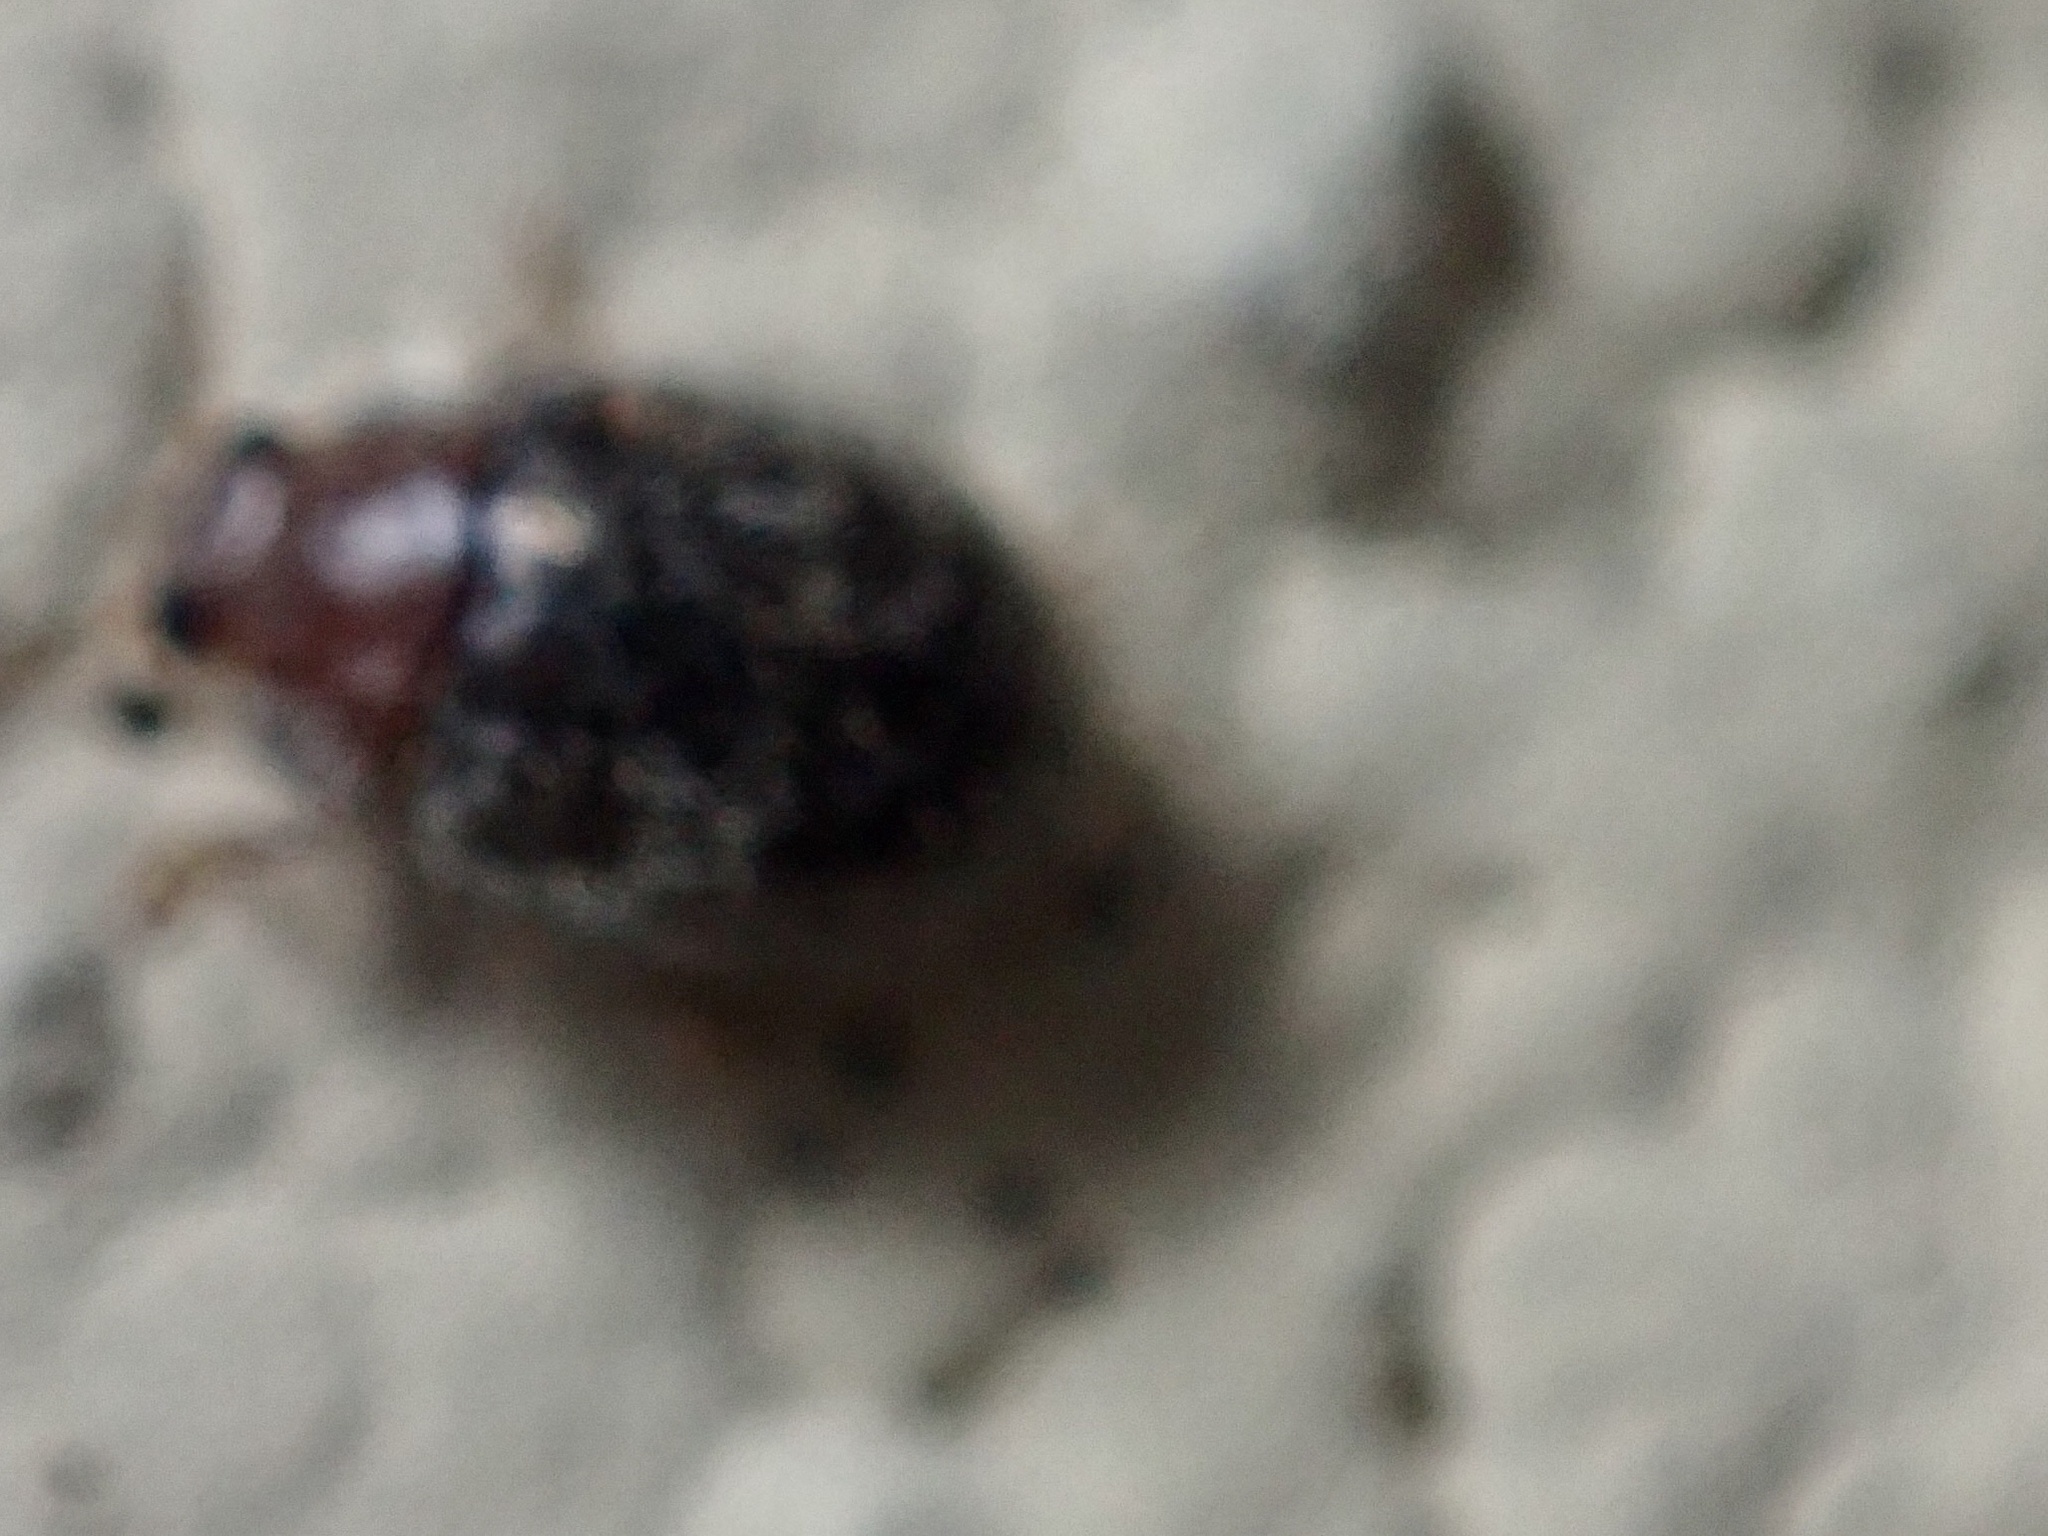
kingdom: Animalia
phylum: Arthropoda
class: Insecta
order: Coleoptera
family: Coccinellidae
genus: Rhyzobius
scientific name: Rhyzobius lophanthae
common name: Scale-eating ladybird beetle
